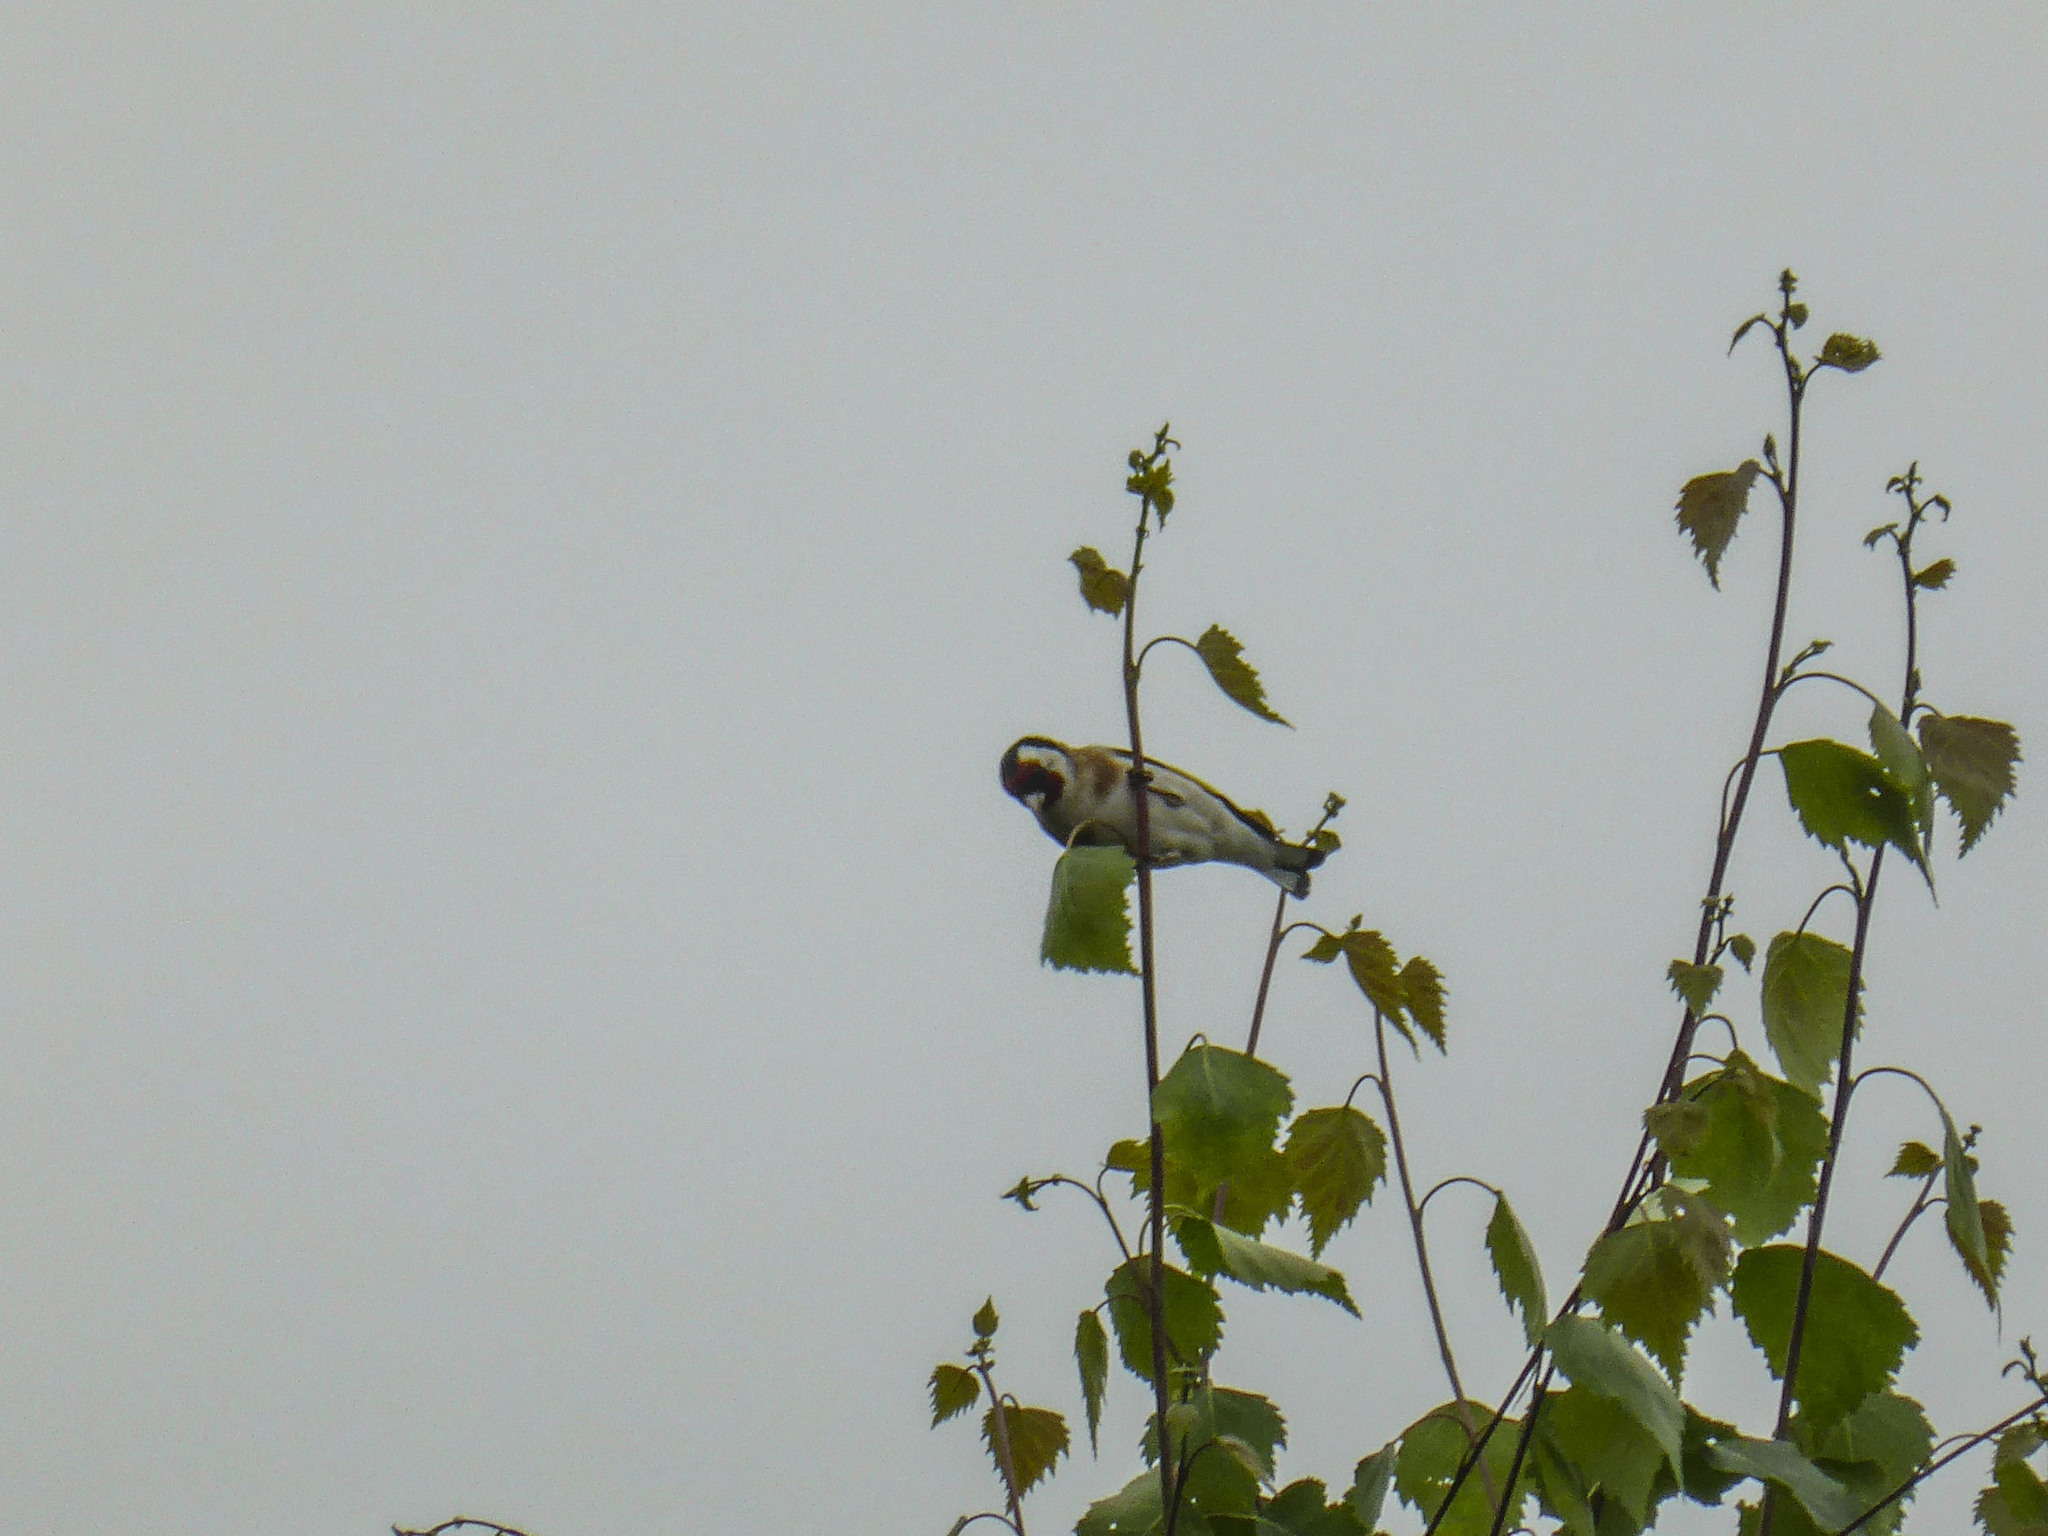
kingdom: Animalia
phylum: Chordata
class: Aves
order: Passeriformes
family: Fringillidae
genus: Carduelis
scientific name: Carduelis carduelis
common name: European goldfinch
